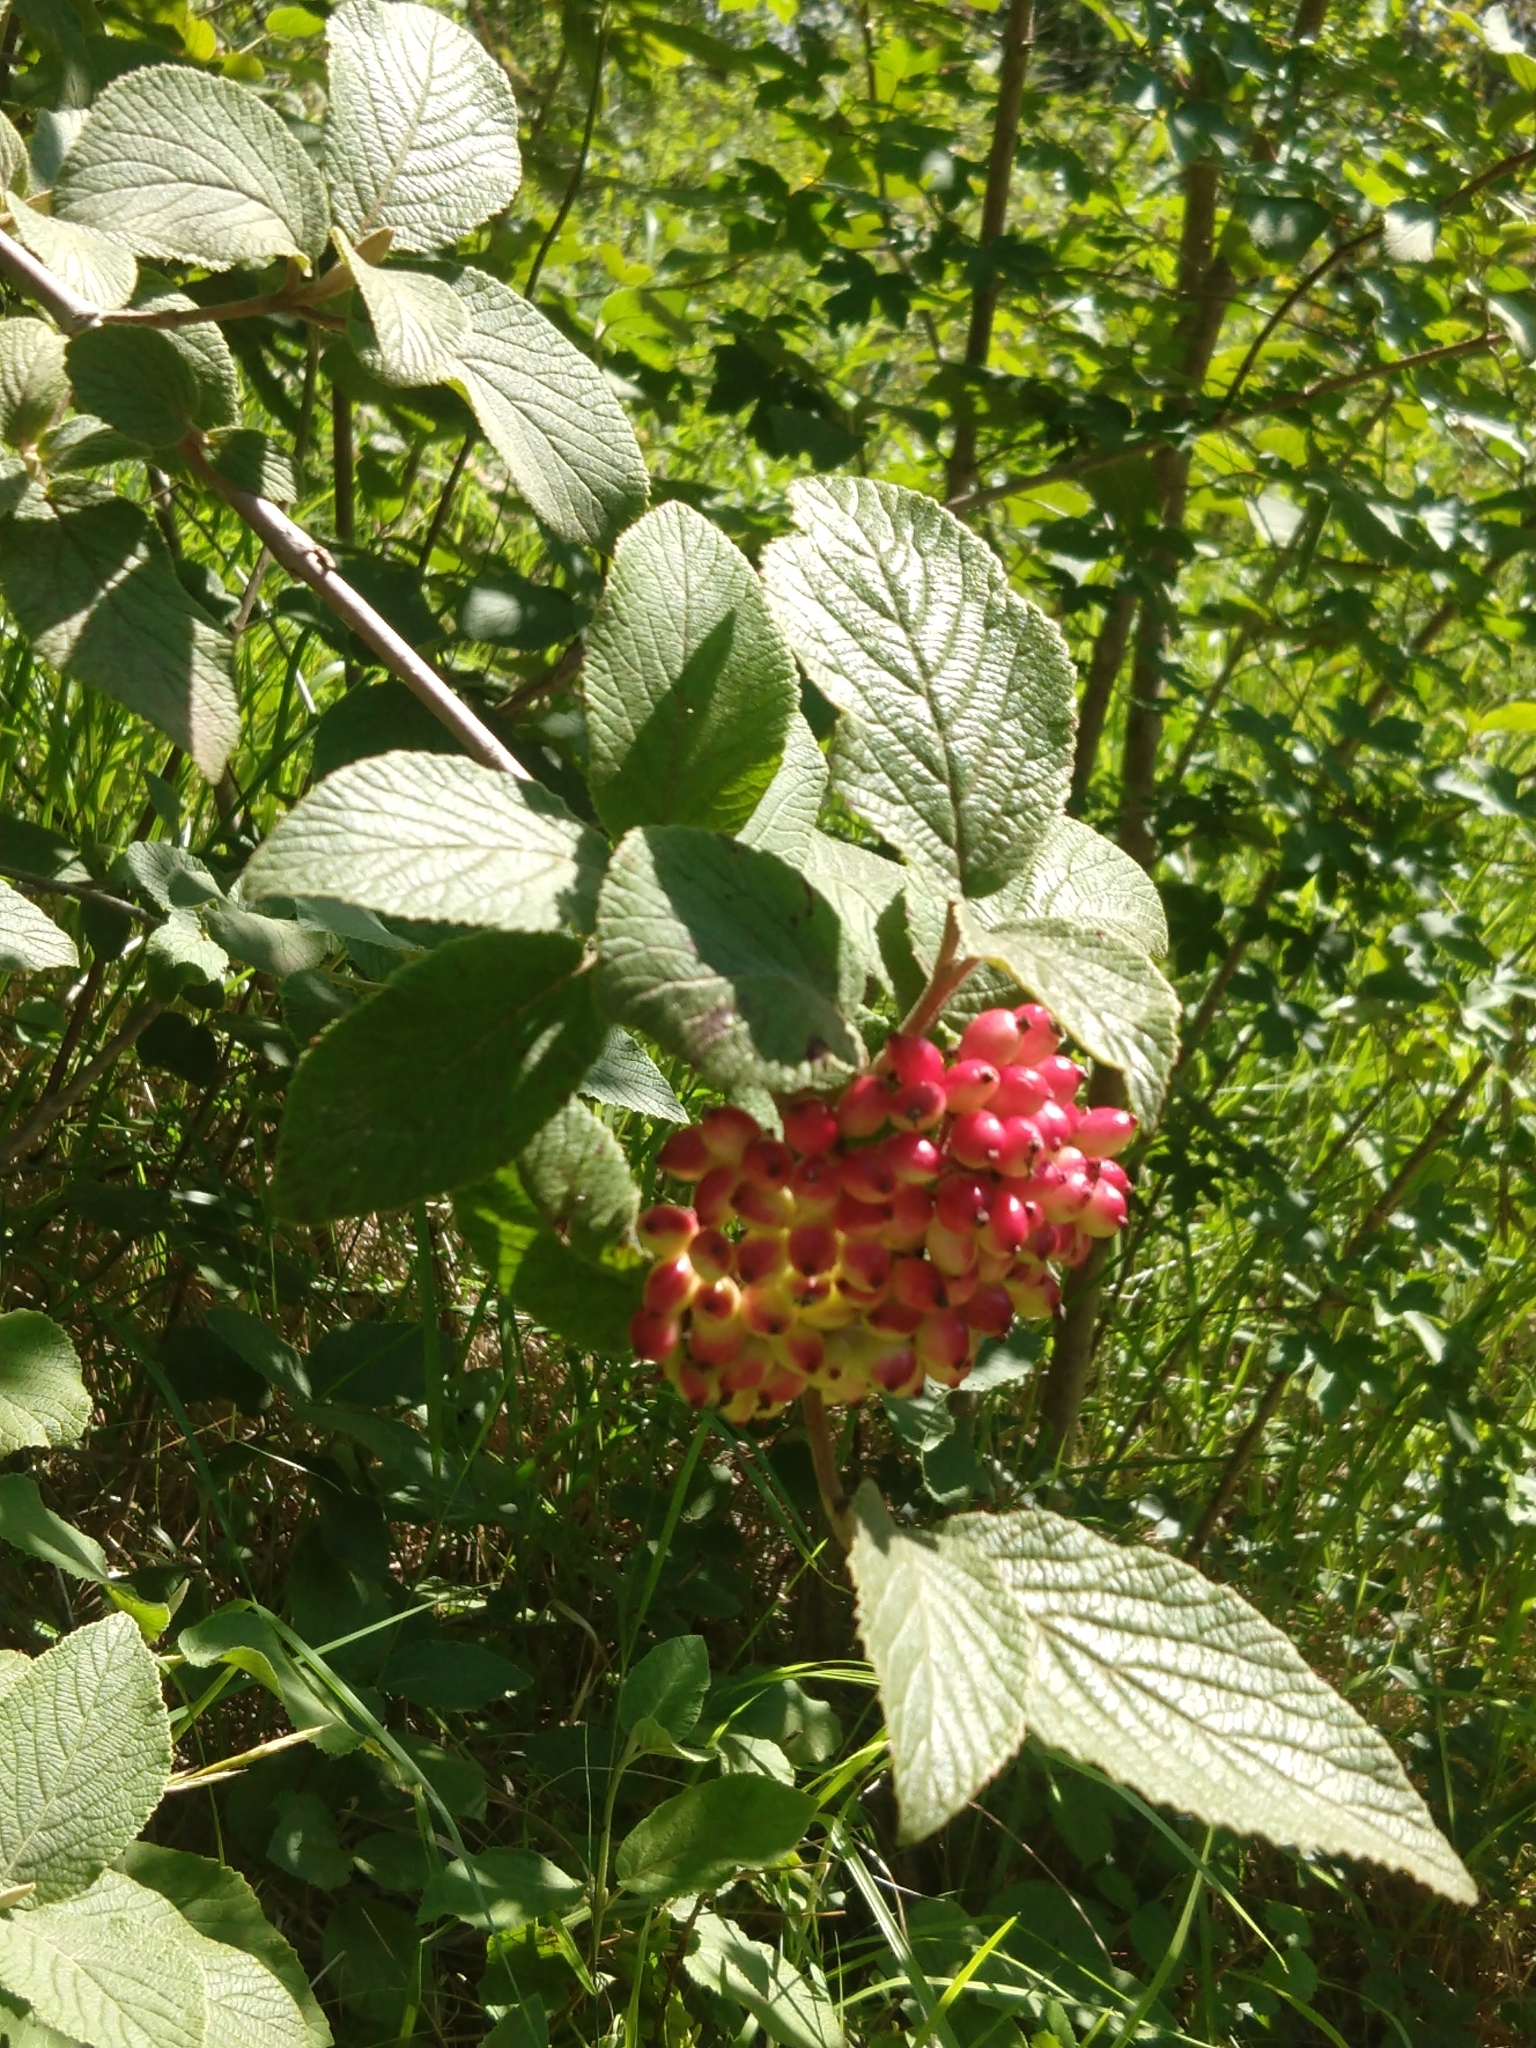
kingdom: Plantae
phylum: Tracheophyta
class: Magnoliopsida
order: Dipsacales
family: Viburnaceae
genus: Viburnum
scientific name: Viburnum lantana
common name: Wayfaring tree
